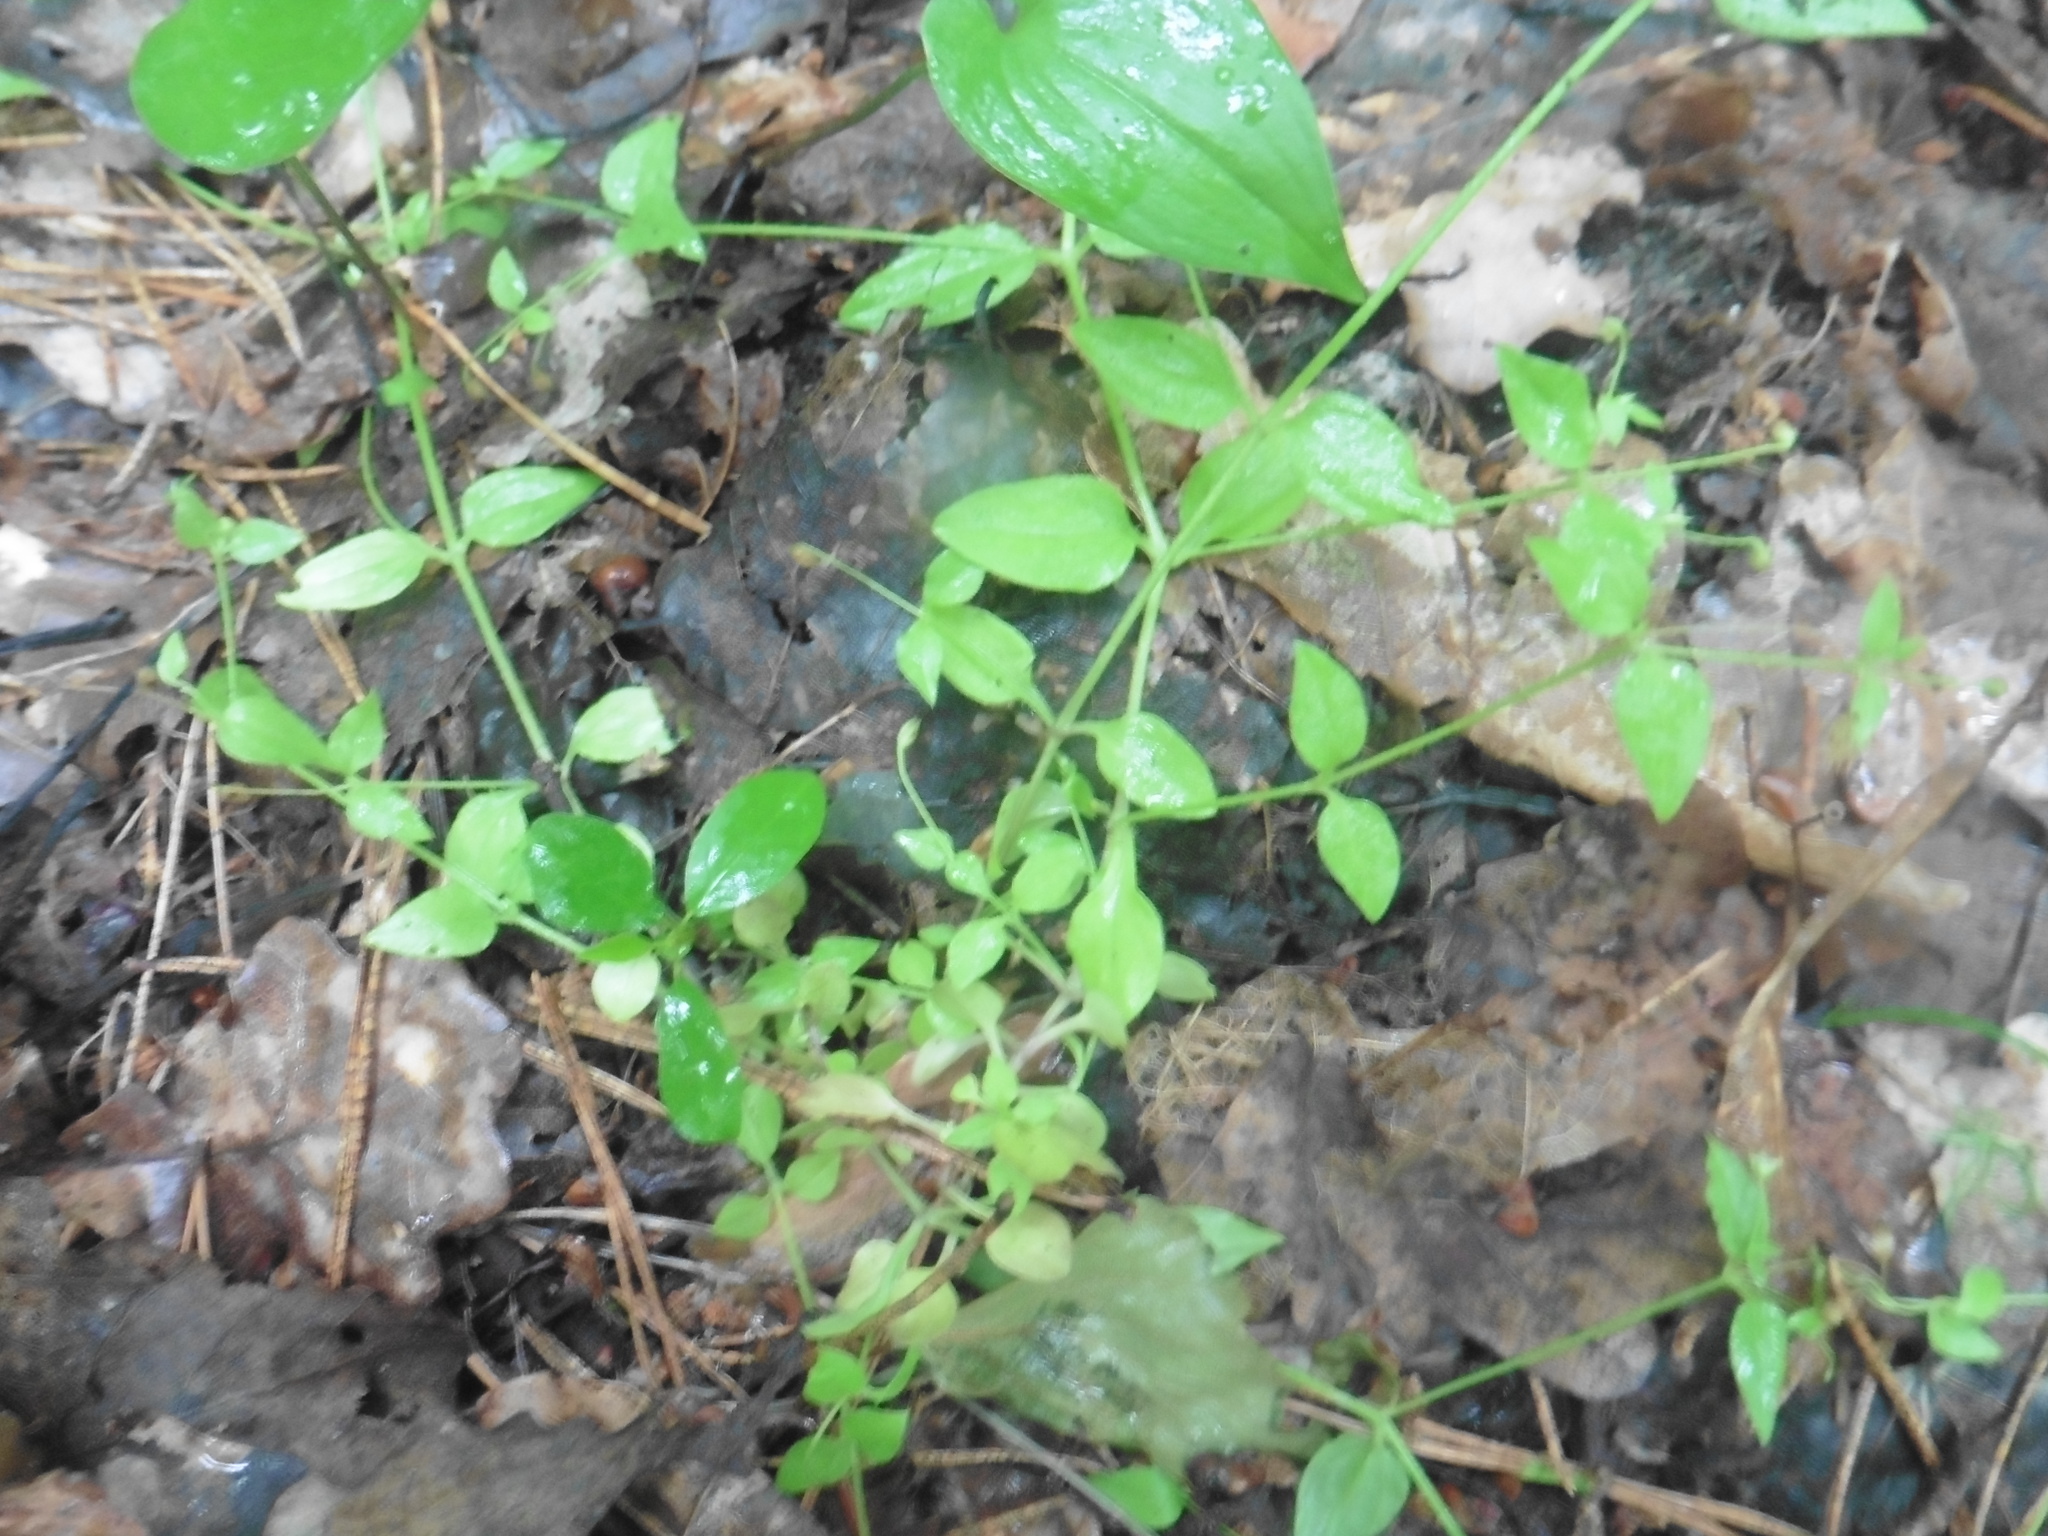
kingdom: Plantae
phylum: Tracheophyta
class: Magnoliopsida
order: Caryophyllales
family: Caryophyllaceae
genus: Moehringia
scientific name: Moehringia trinervia
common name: Three-nerved sandwort
